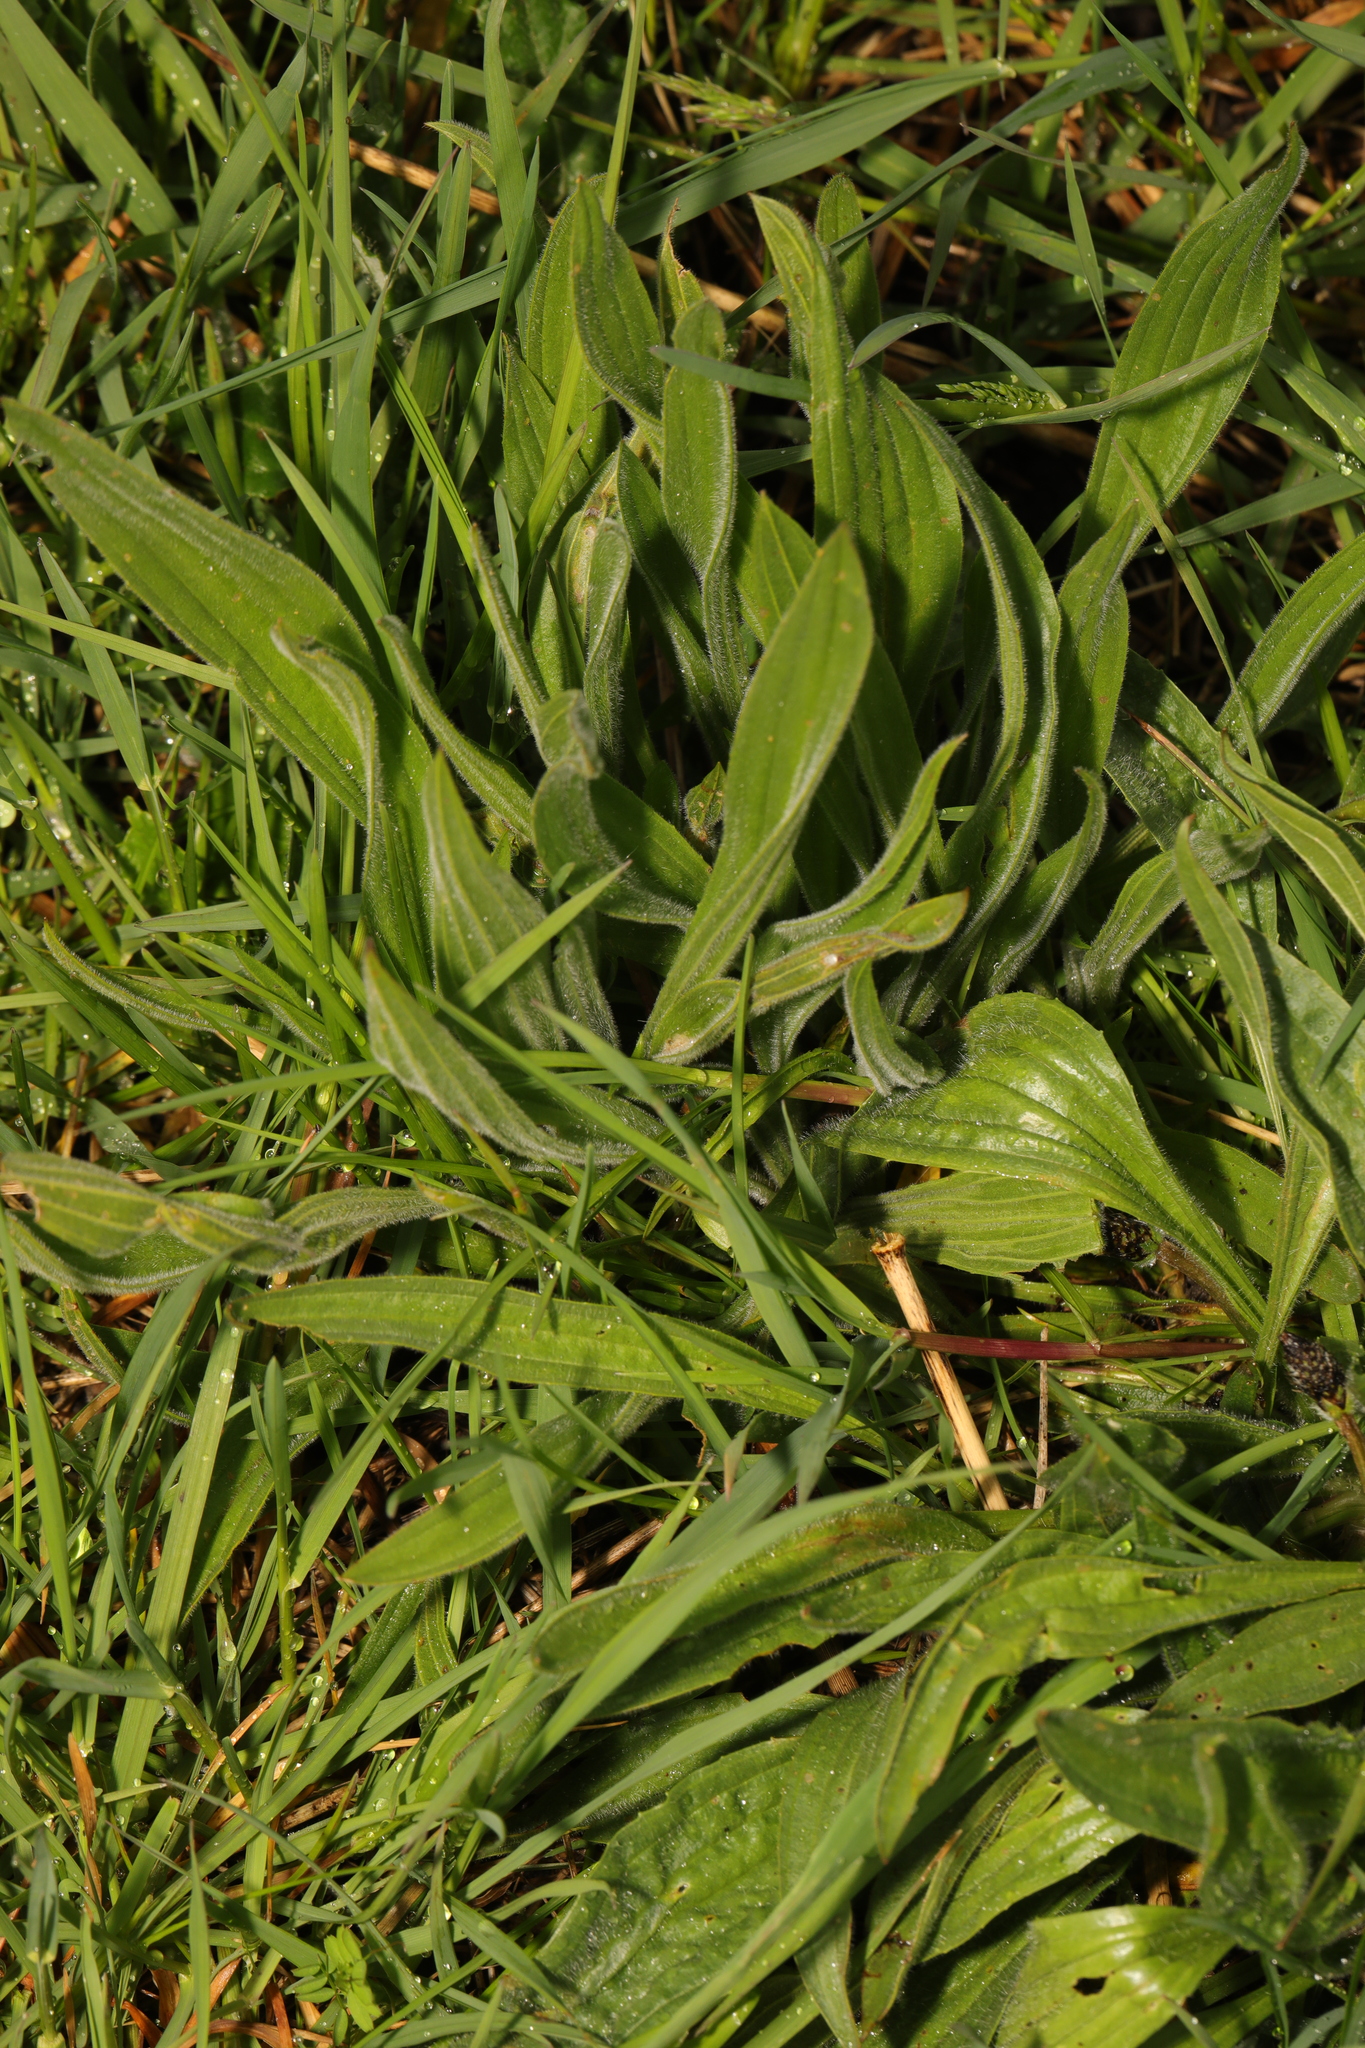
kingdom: Plantae
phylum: Tracheophyta
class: Magnoliopsida
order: Lamiales
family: Plantaginaceae
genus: Plantago
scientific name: Plantago lanceolata
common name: Ribwort plantain
